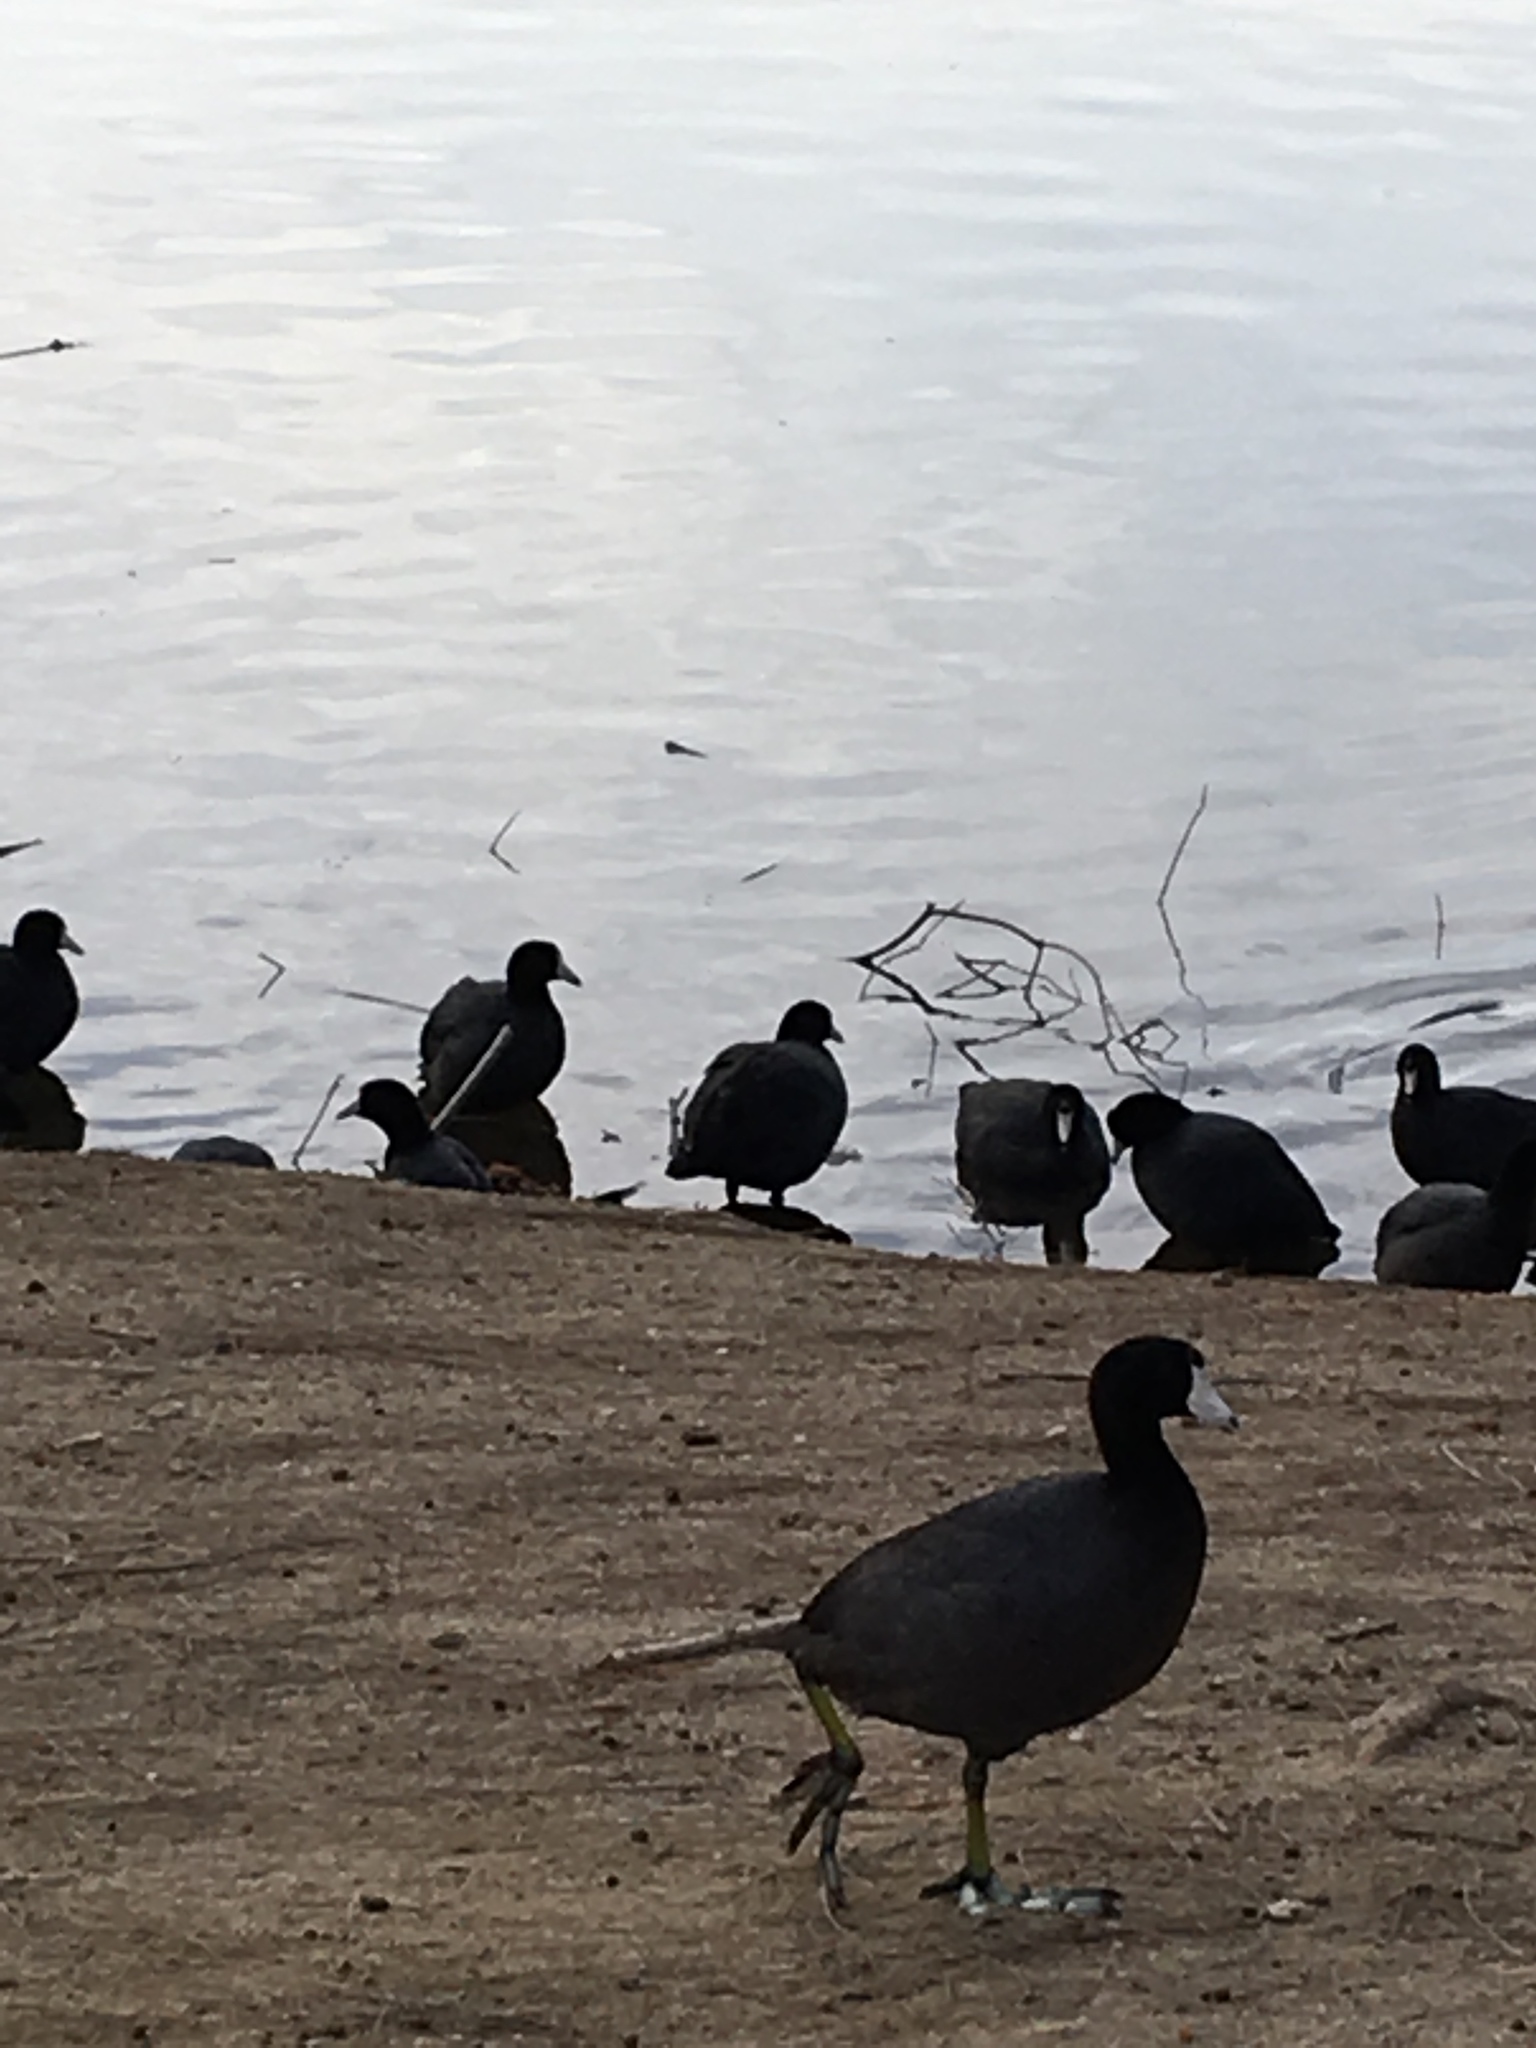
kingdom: Animalia
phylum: Chordata
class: Aves
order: Gruiformes
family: Rallidae
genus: Fulica
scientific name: Fulica americana
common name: American coot
